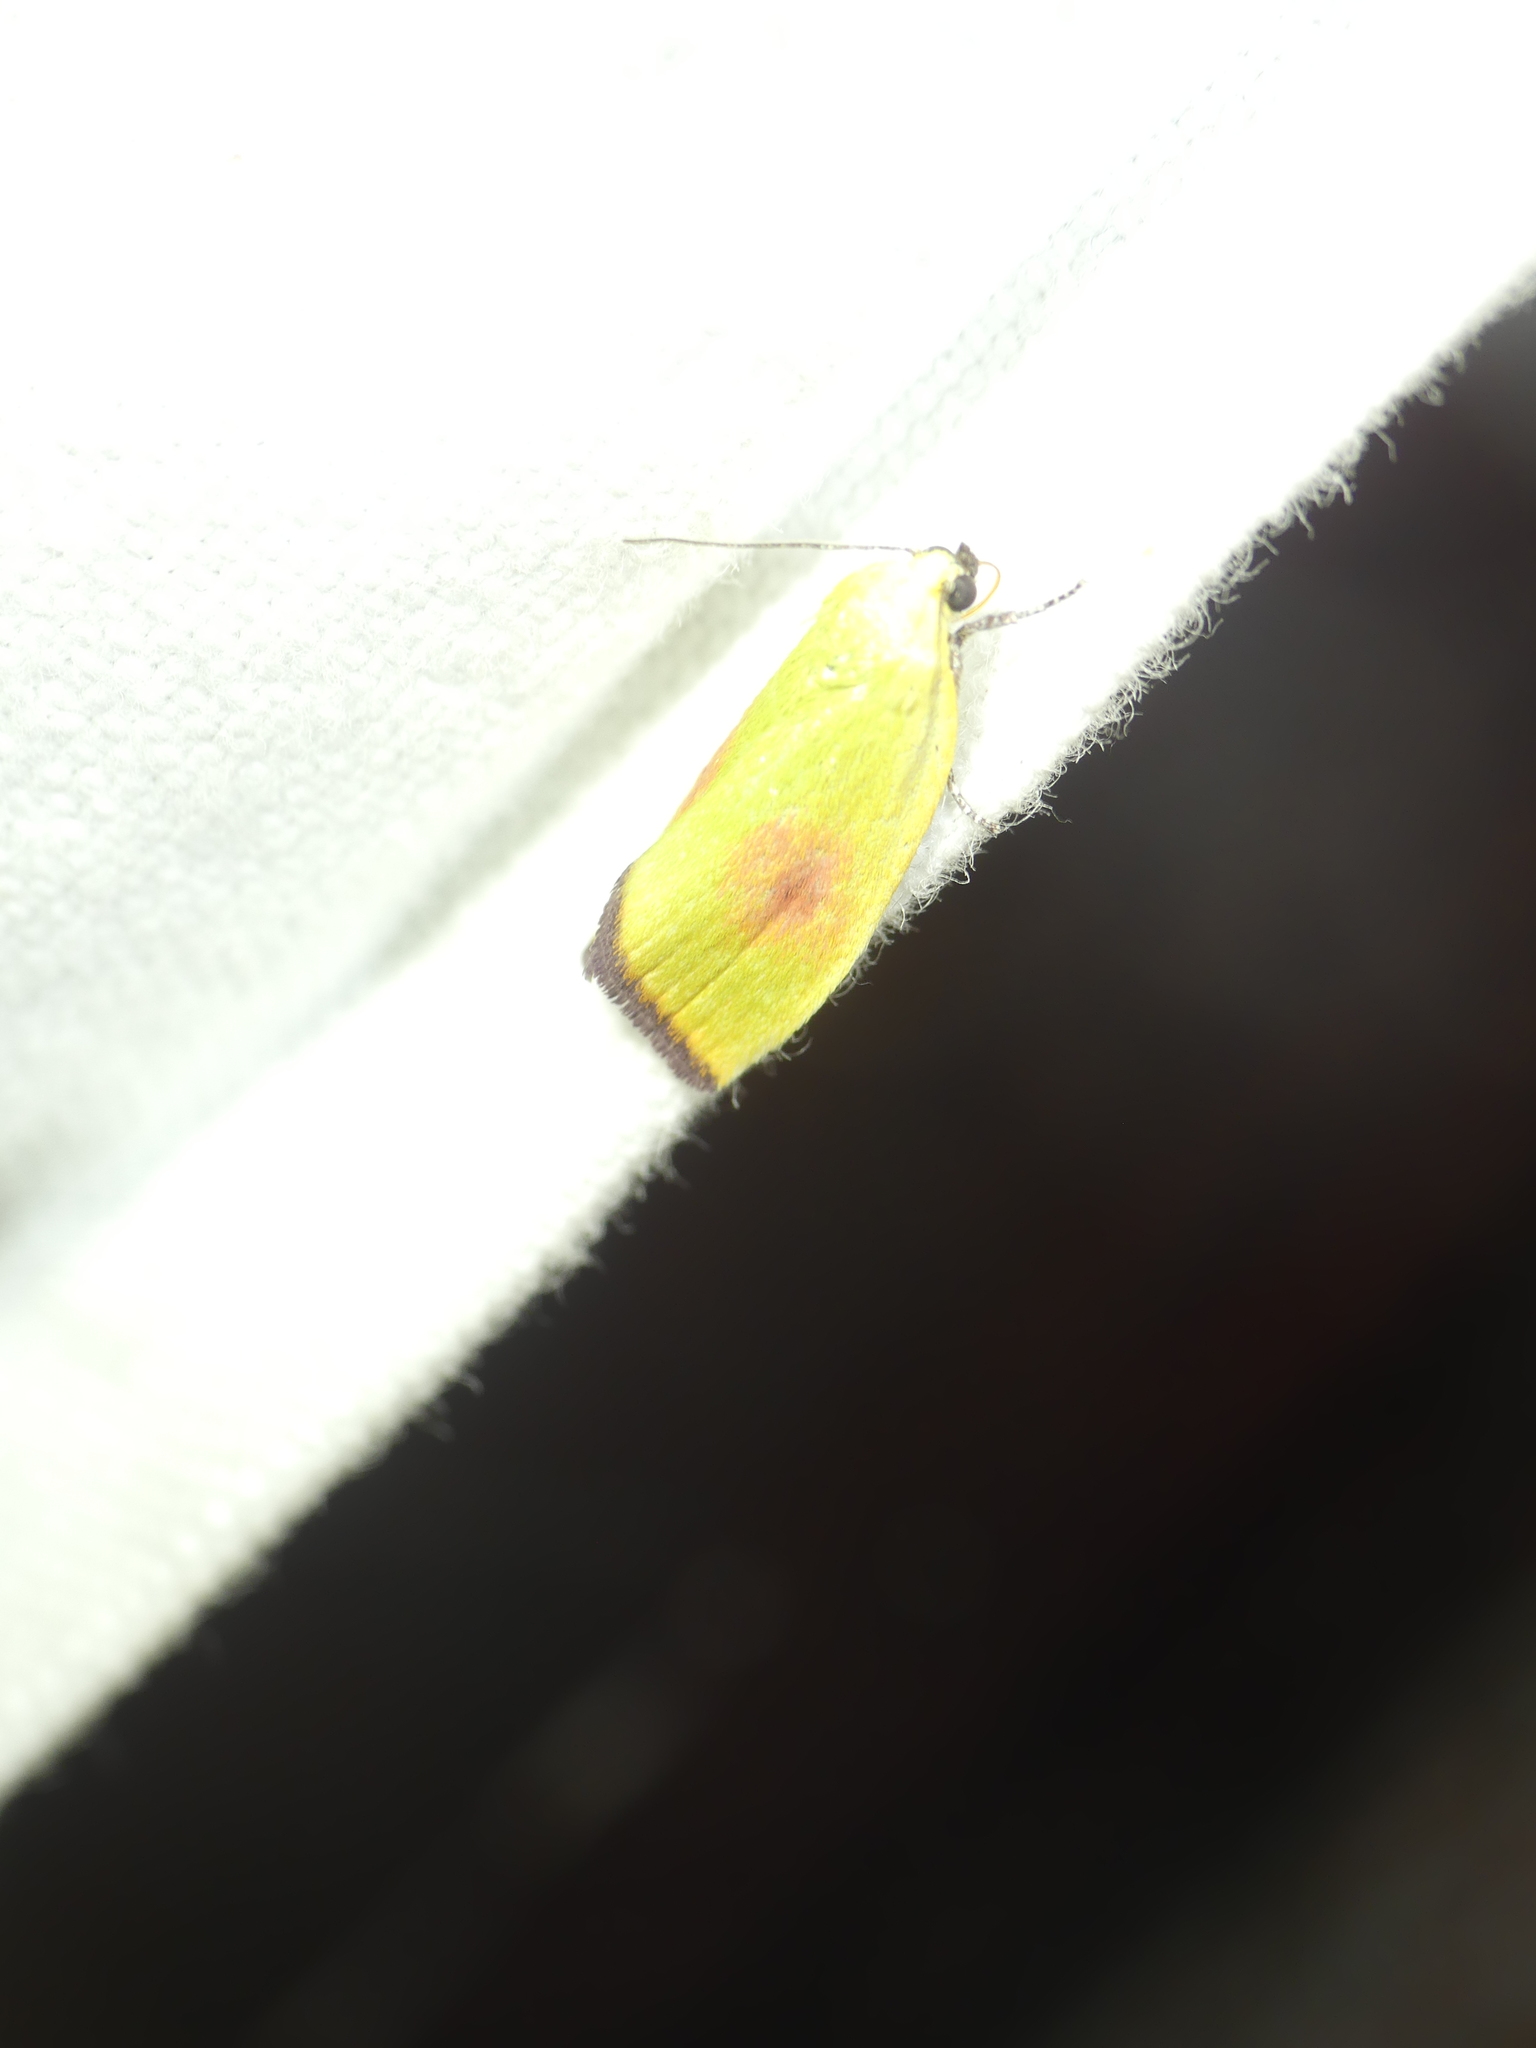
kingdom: Animalia
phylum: Arthropoda
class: Insecta
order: Lepidoptera
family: Nolidae
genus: Earias
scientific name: Earias roseifera
